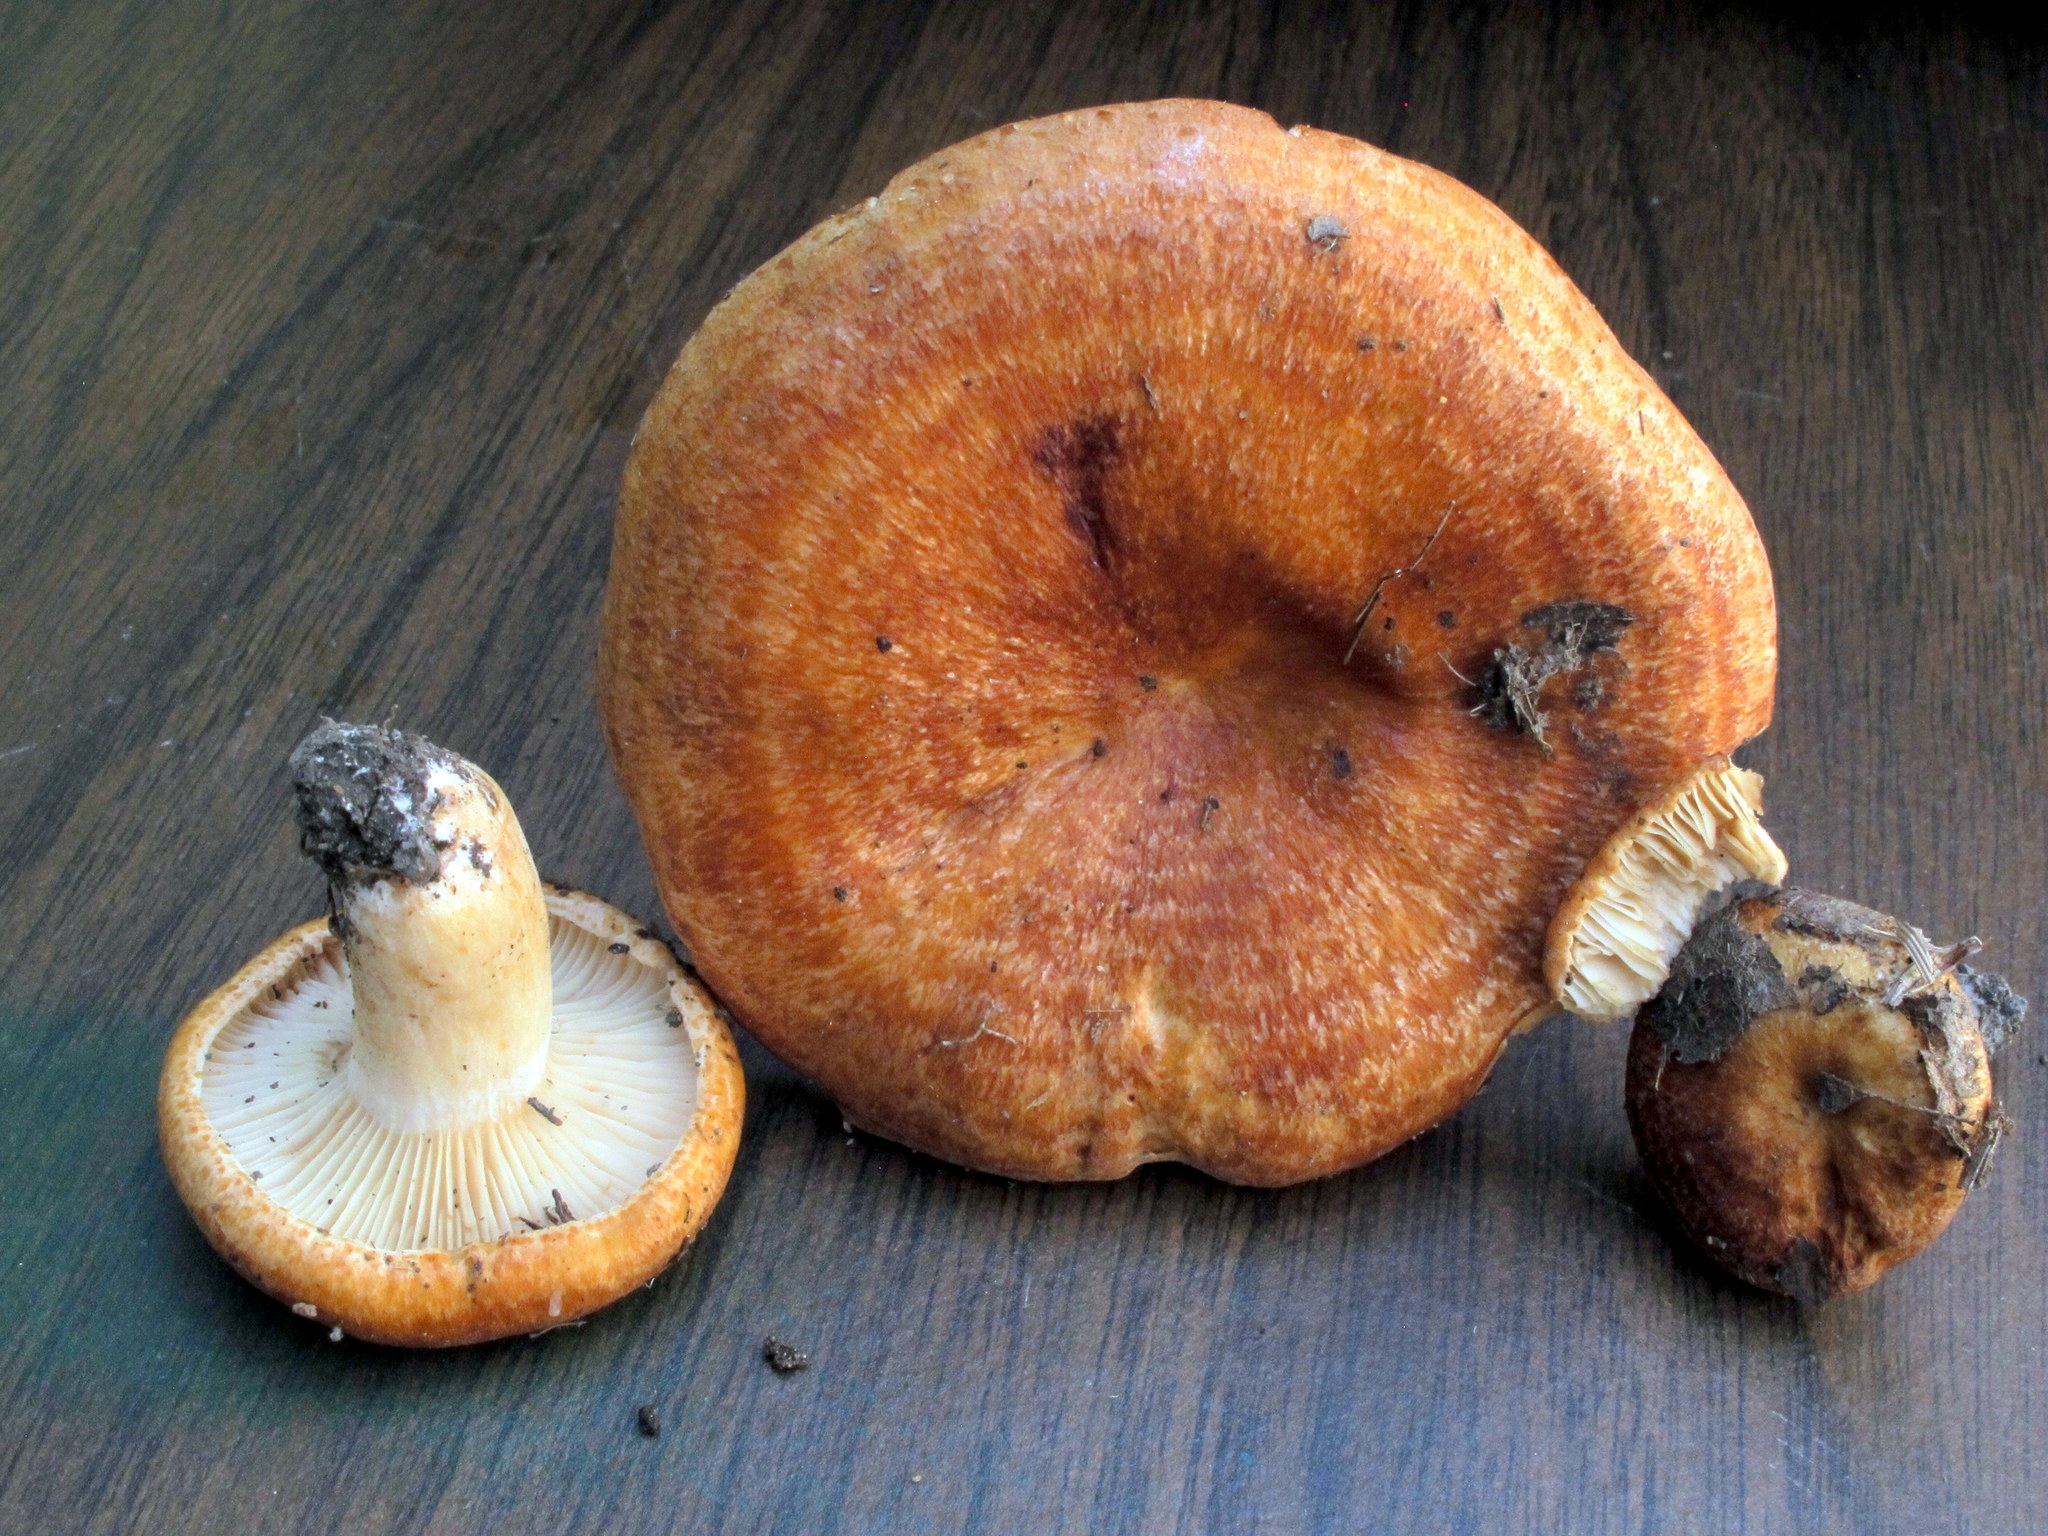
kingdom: Fungi
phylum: Basidiomycota
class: Agaricomycetes
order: Russulales
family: Russulaceae
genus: Lactarius
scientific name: Lactarius proximellus
